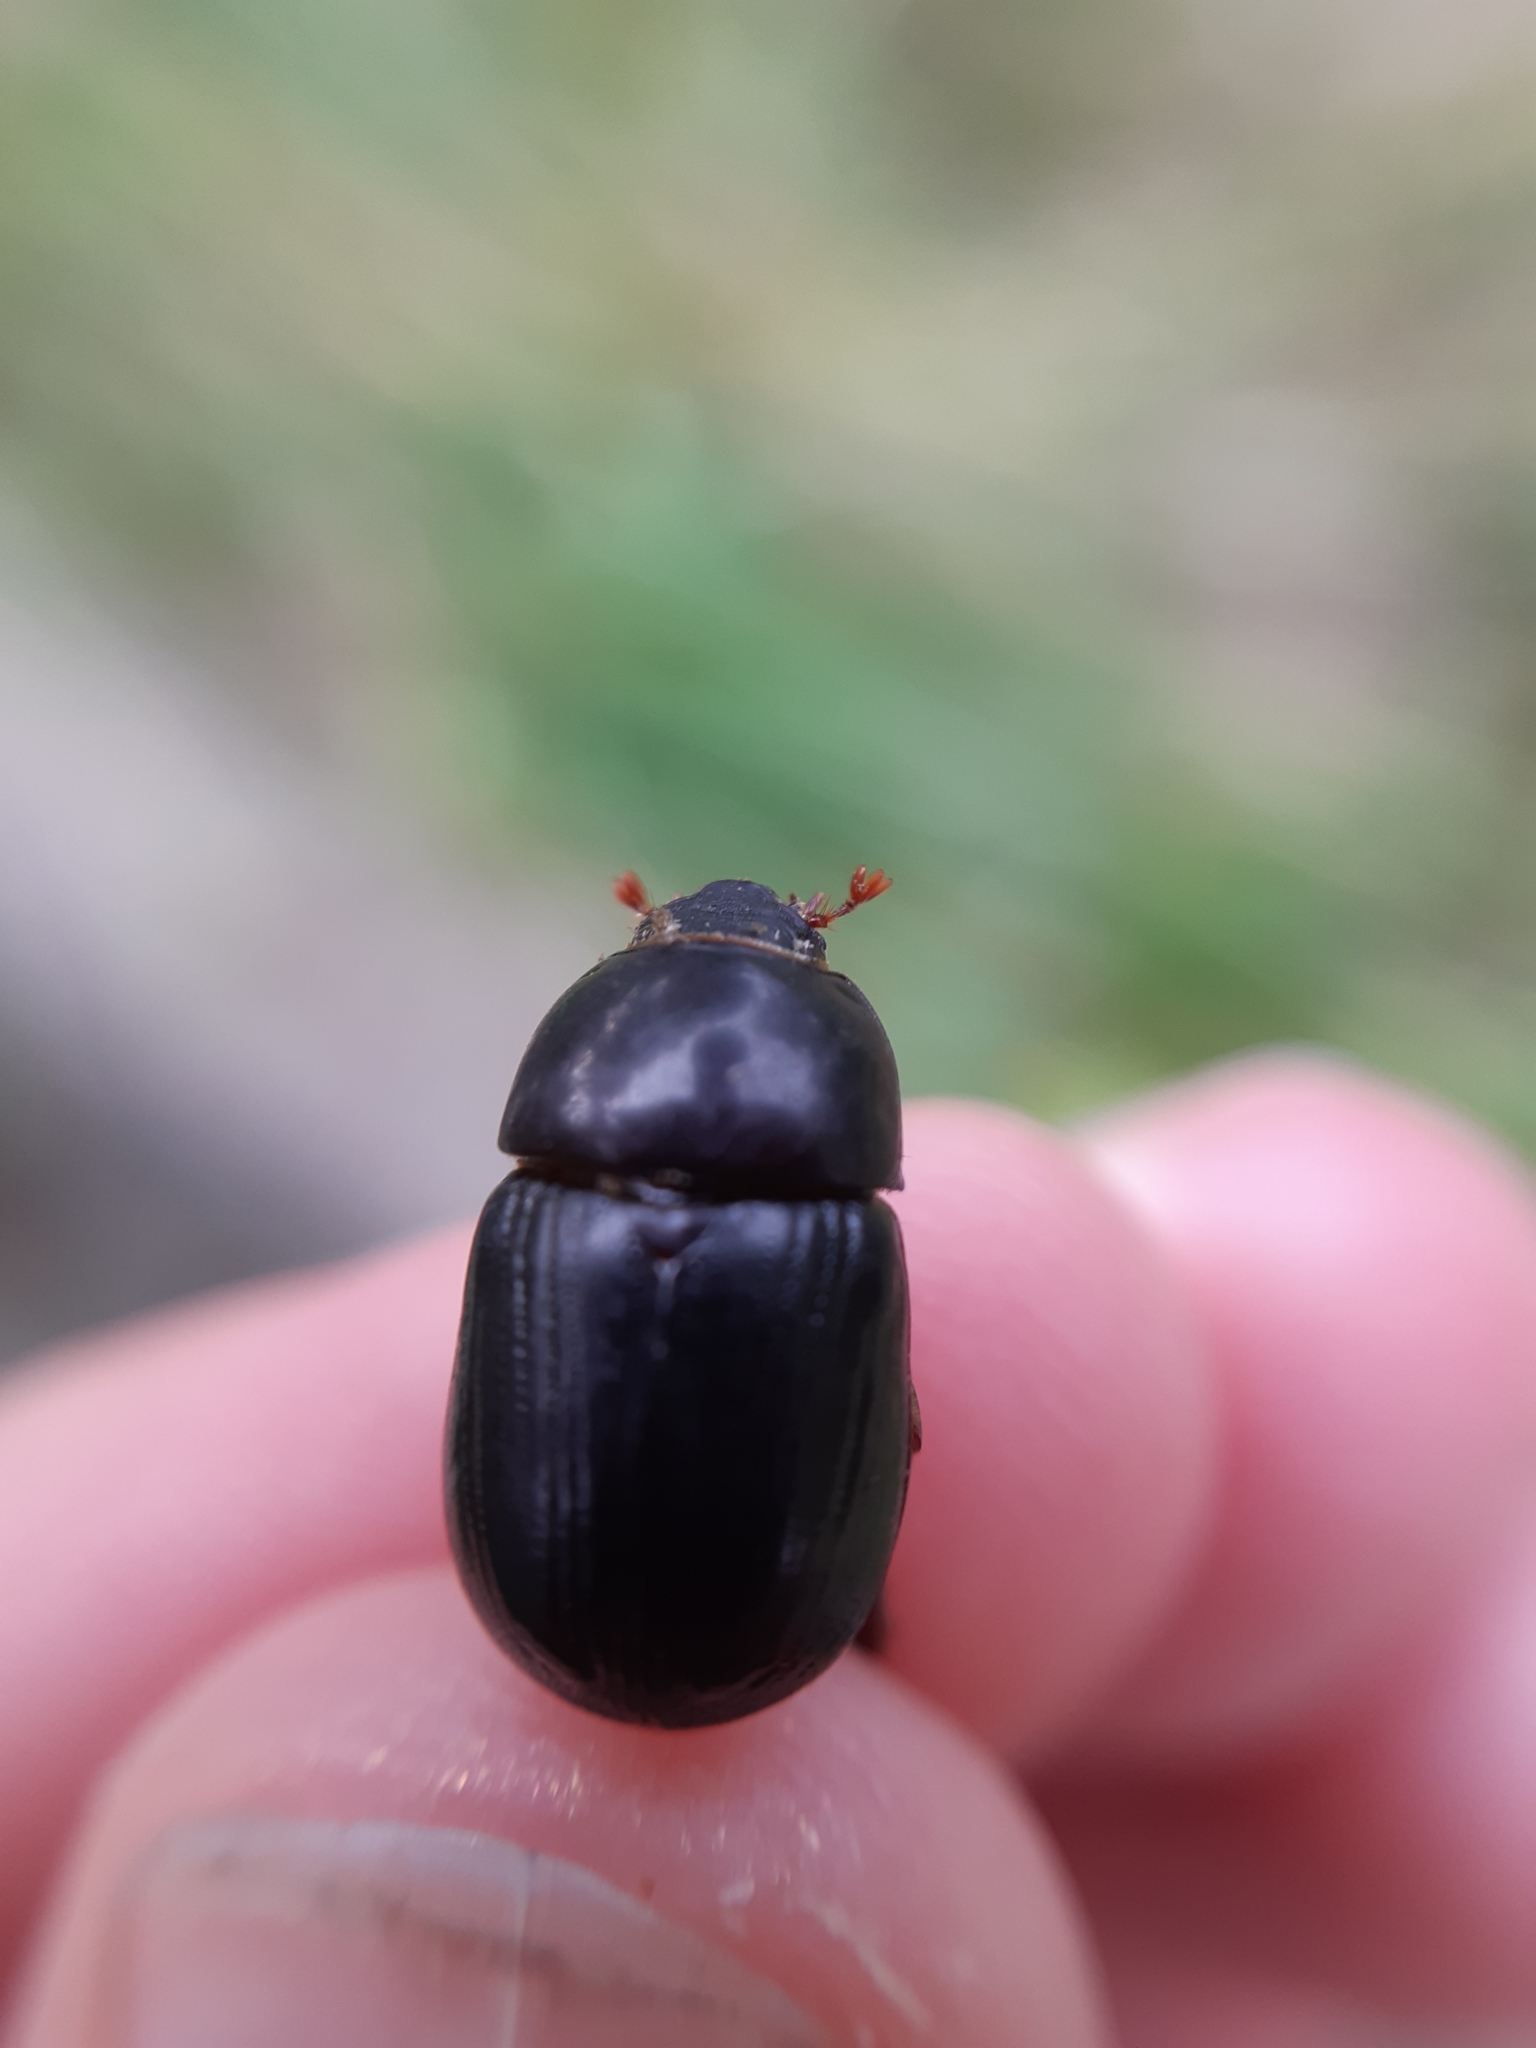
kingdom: Animalia
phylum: Arthropoda
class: Insecta
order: Coleoptera
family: Scarabaeidae
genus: Heteronychus
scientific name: Heteronychus arator
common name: African black beetle
